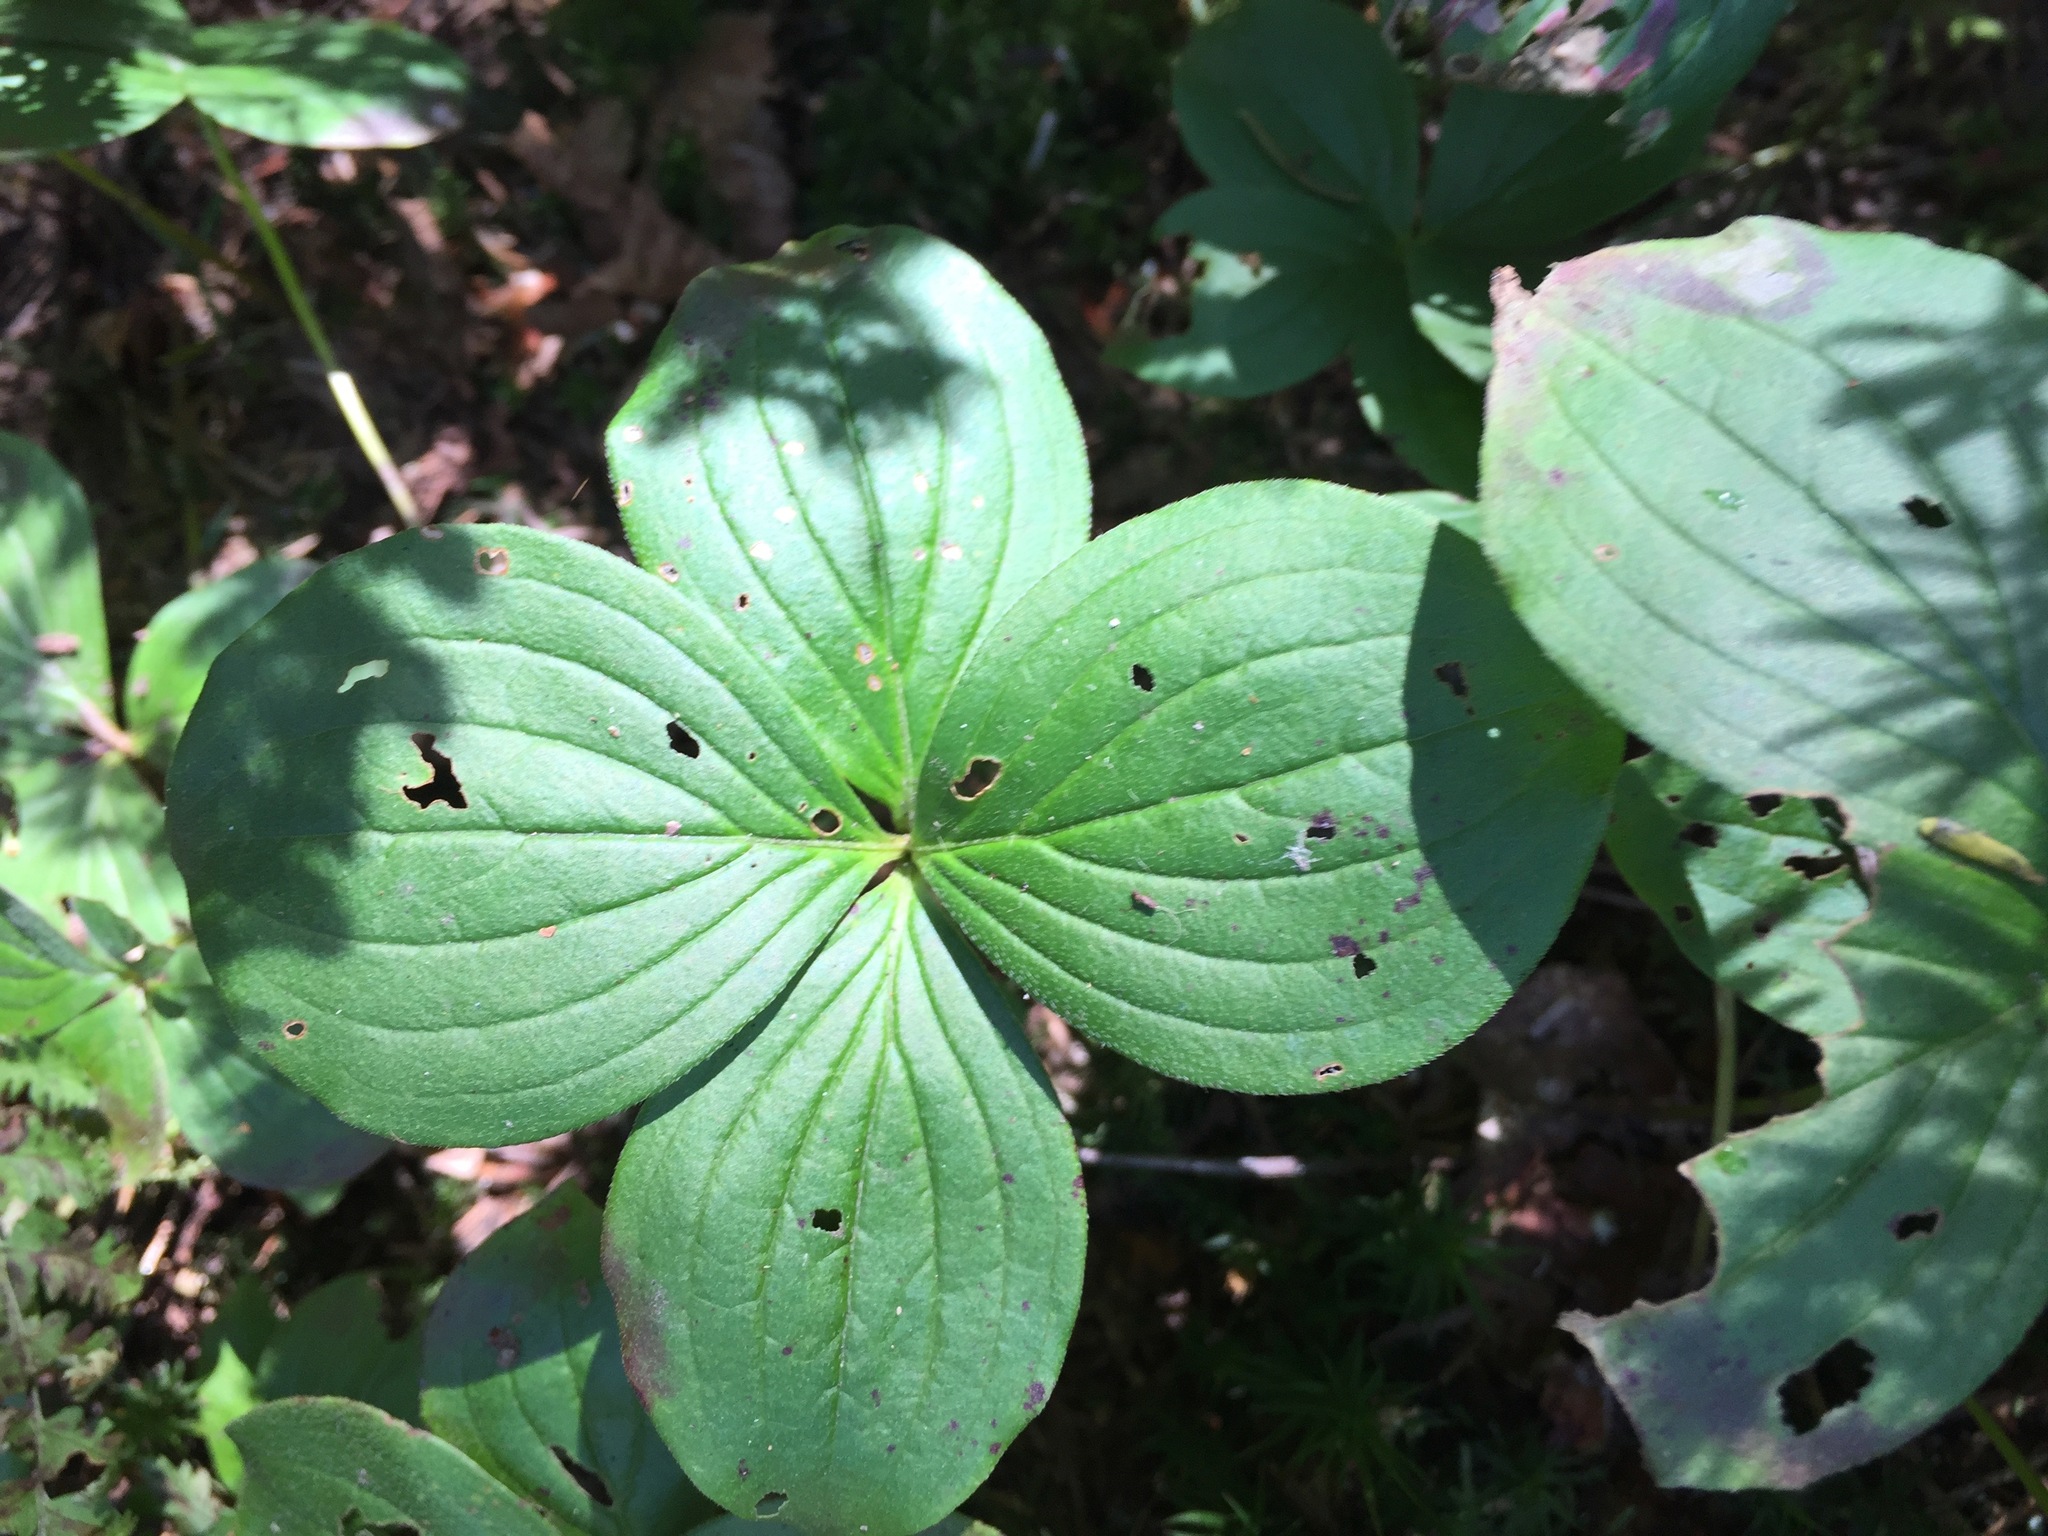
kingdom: Plantae
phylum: Tracheophyta
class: Magnoliopsida
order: Cornales
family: Cornaceae
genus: Cornus
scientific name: Cornus canadensis
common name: Creeping dogwood
